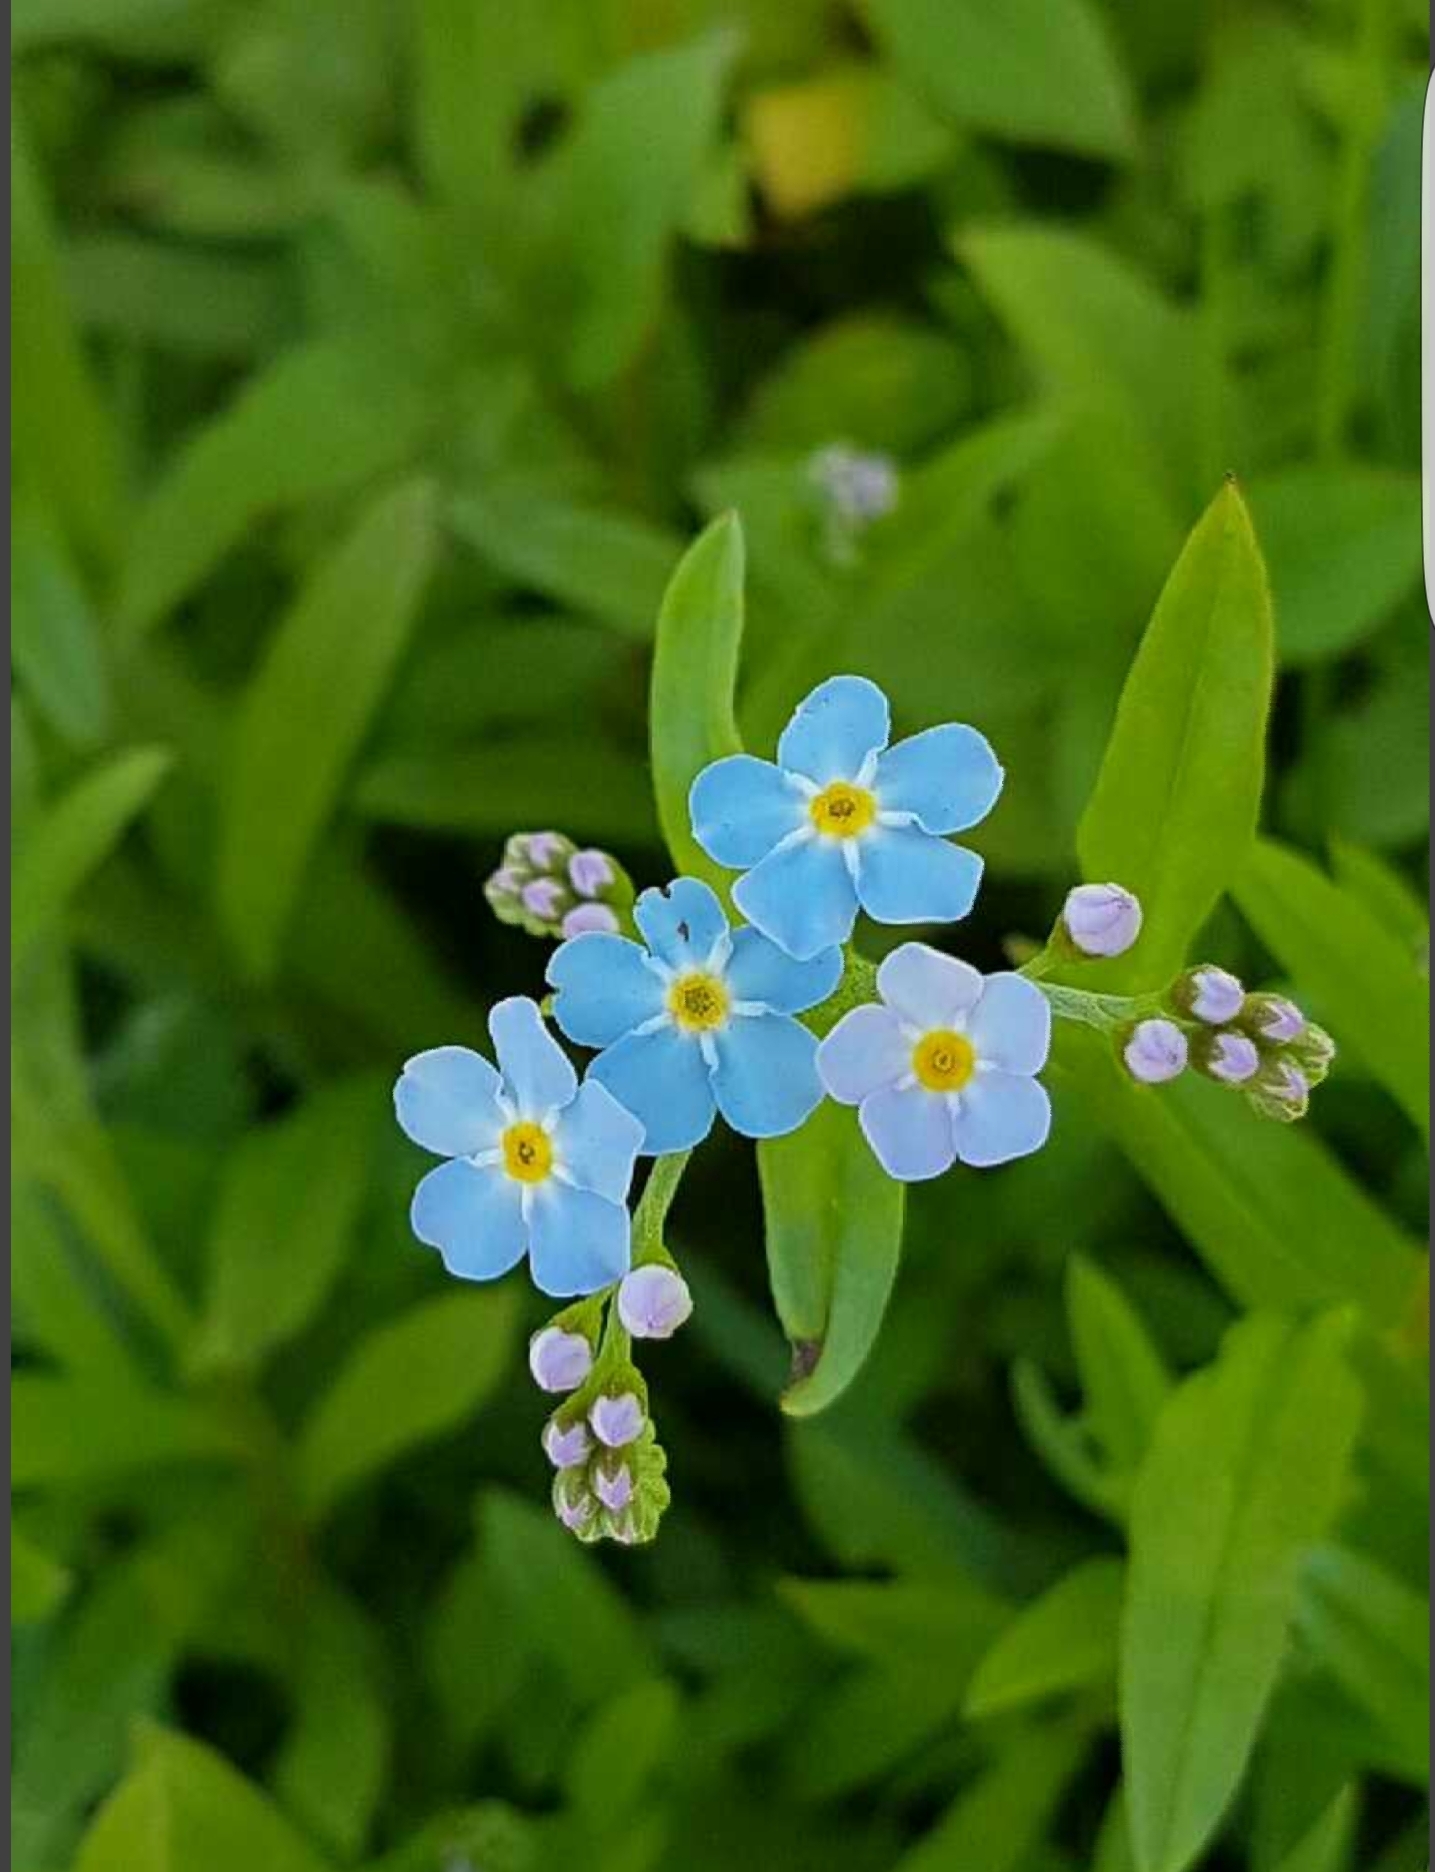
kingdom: Plantae
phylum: Tracheophyta
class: Magnoliopsida
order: Boraginales
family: Boraginaceae
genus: Myosotis
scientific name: Myosotis scorpioides
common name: Water forget-me-not
